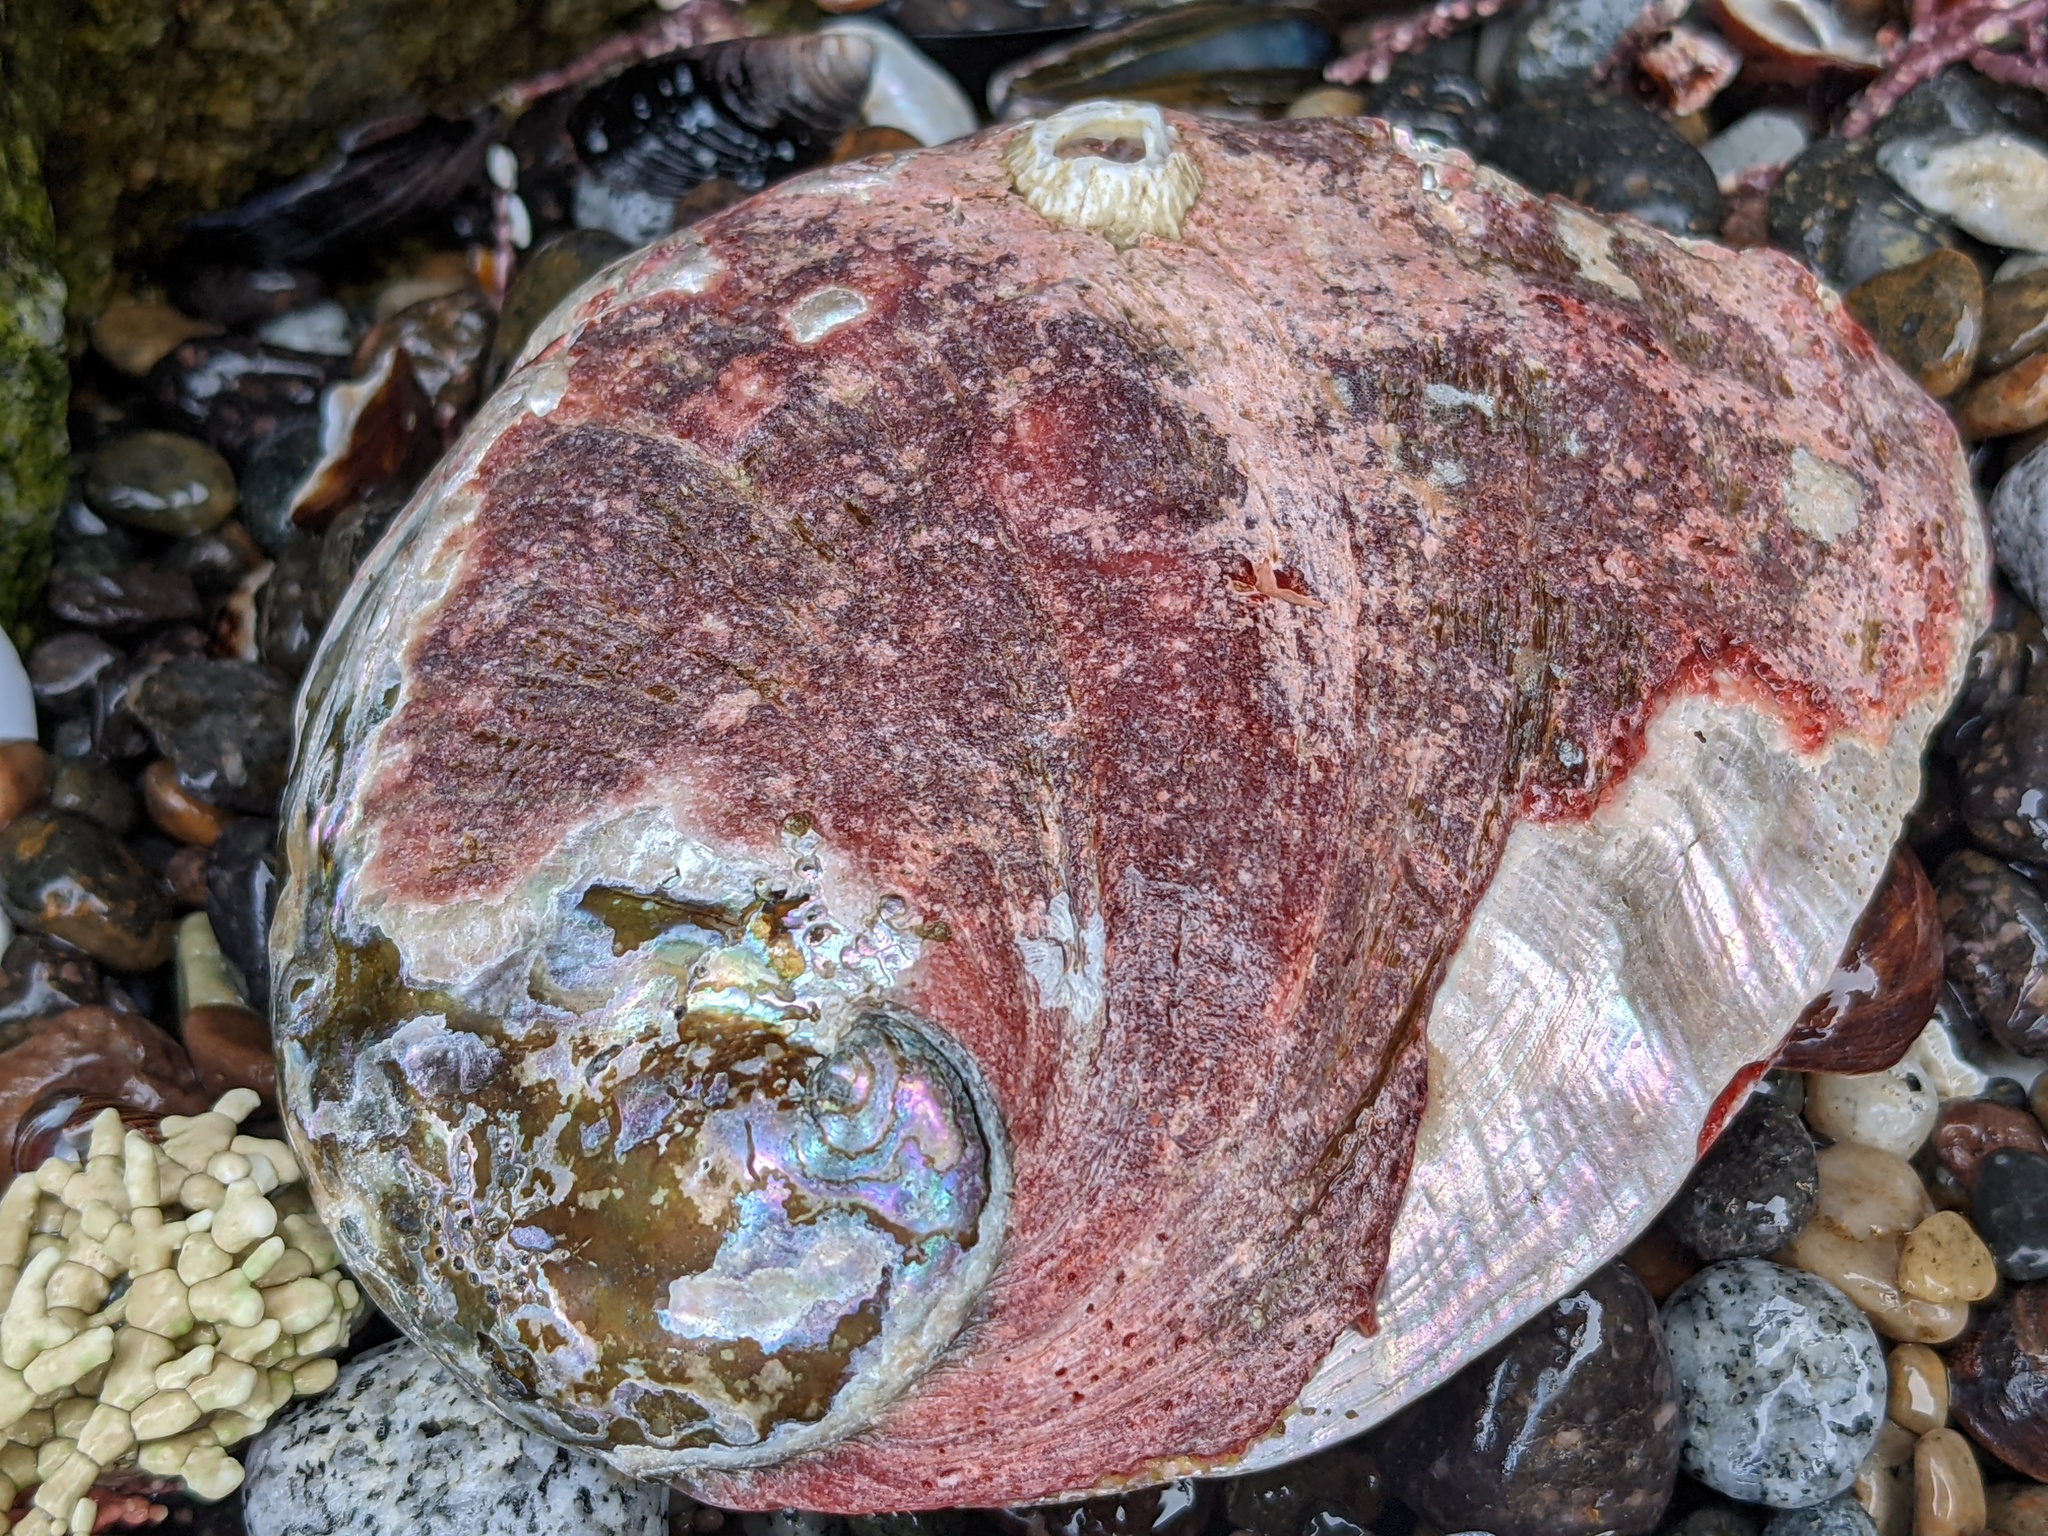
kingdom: Animalia
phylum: Mollusca
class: Gastropoda
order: Lepetellida
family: Haliotidae
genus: Haliotis
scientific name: Haliotis rufescens
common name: Red abalone
